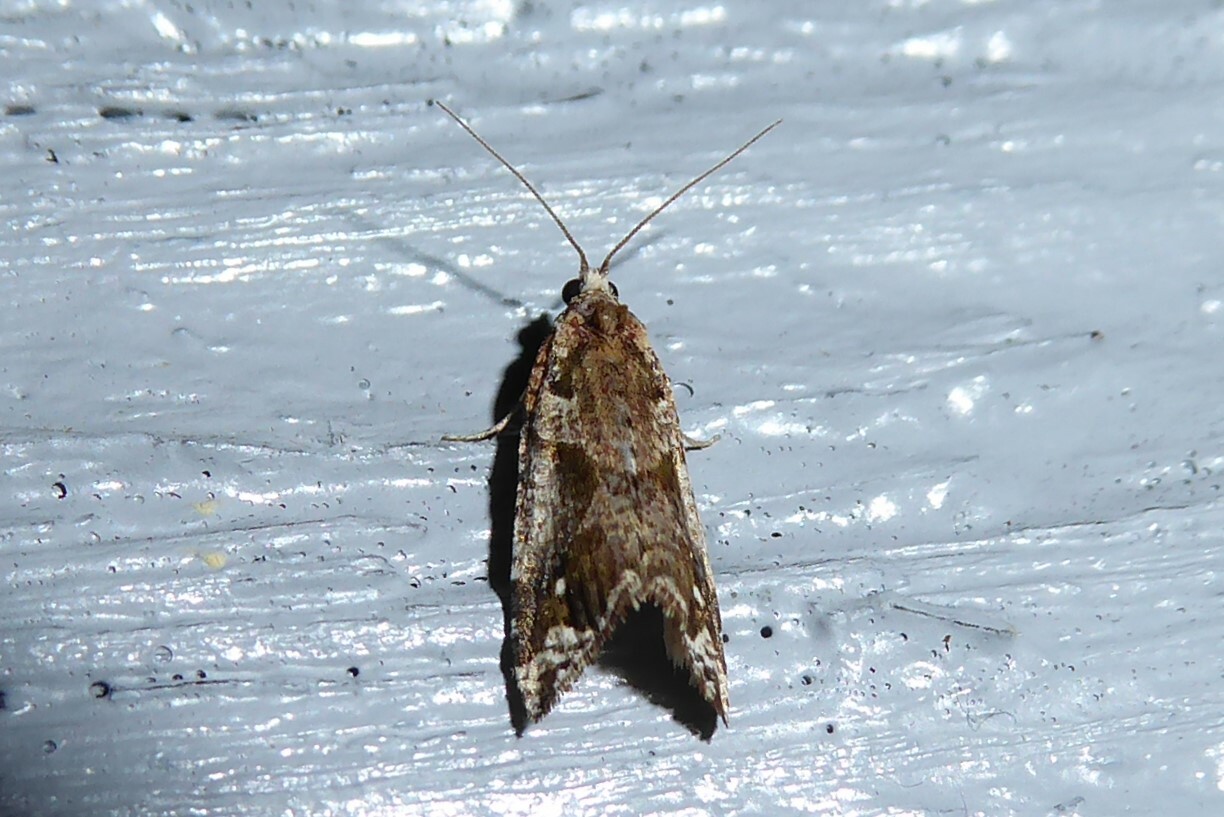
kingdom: Animalia
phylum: Arthropoda
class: Insecta
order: Lepidoptera
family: Tortricidae
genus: Pyrgotis
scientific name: Pyrgotis plagiatana
